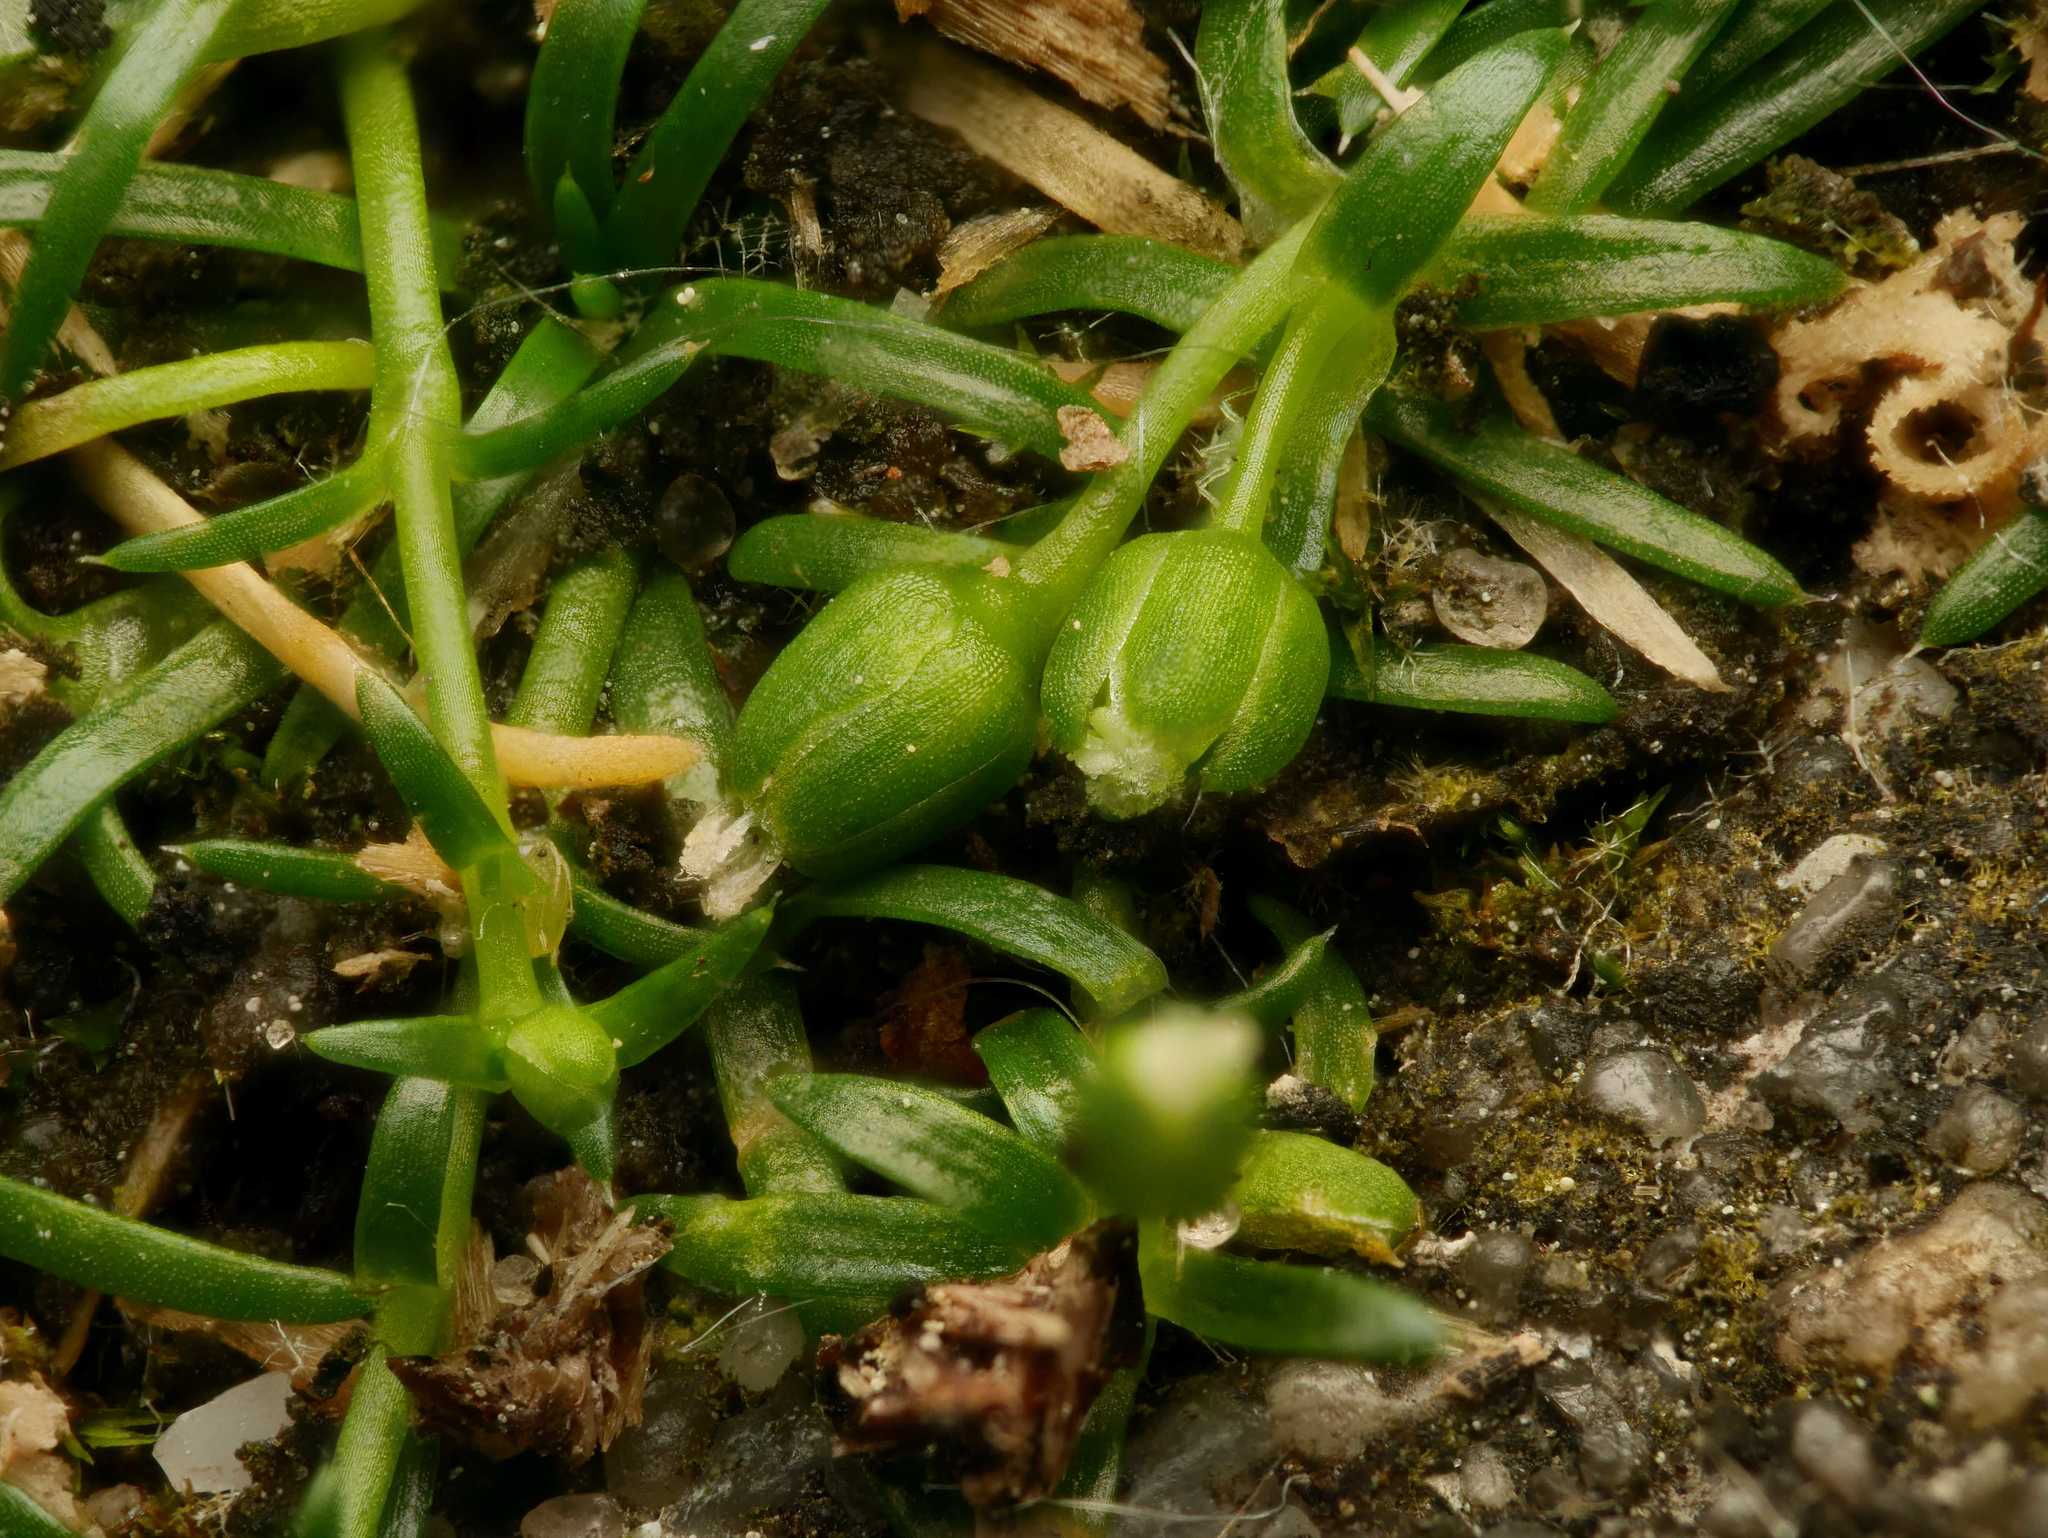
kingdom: Plantae
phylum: Tracheophyta
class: Magnoliopsida
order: Caryophyllales
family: Caryophyllaceae
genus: Sagina
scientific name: Sagina procumbens
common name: Procumbent pearlwort
